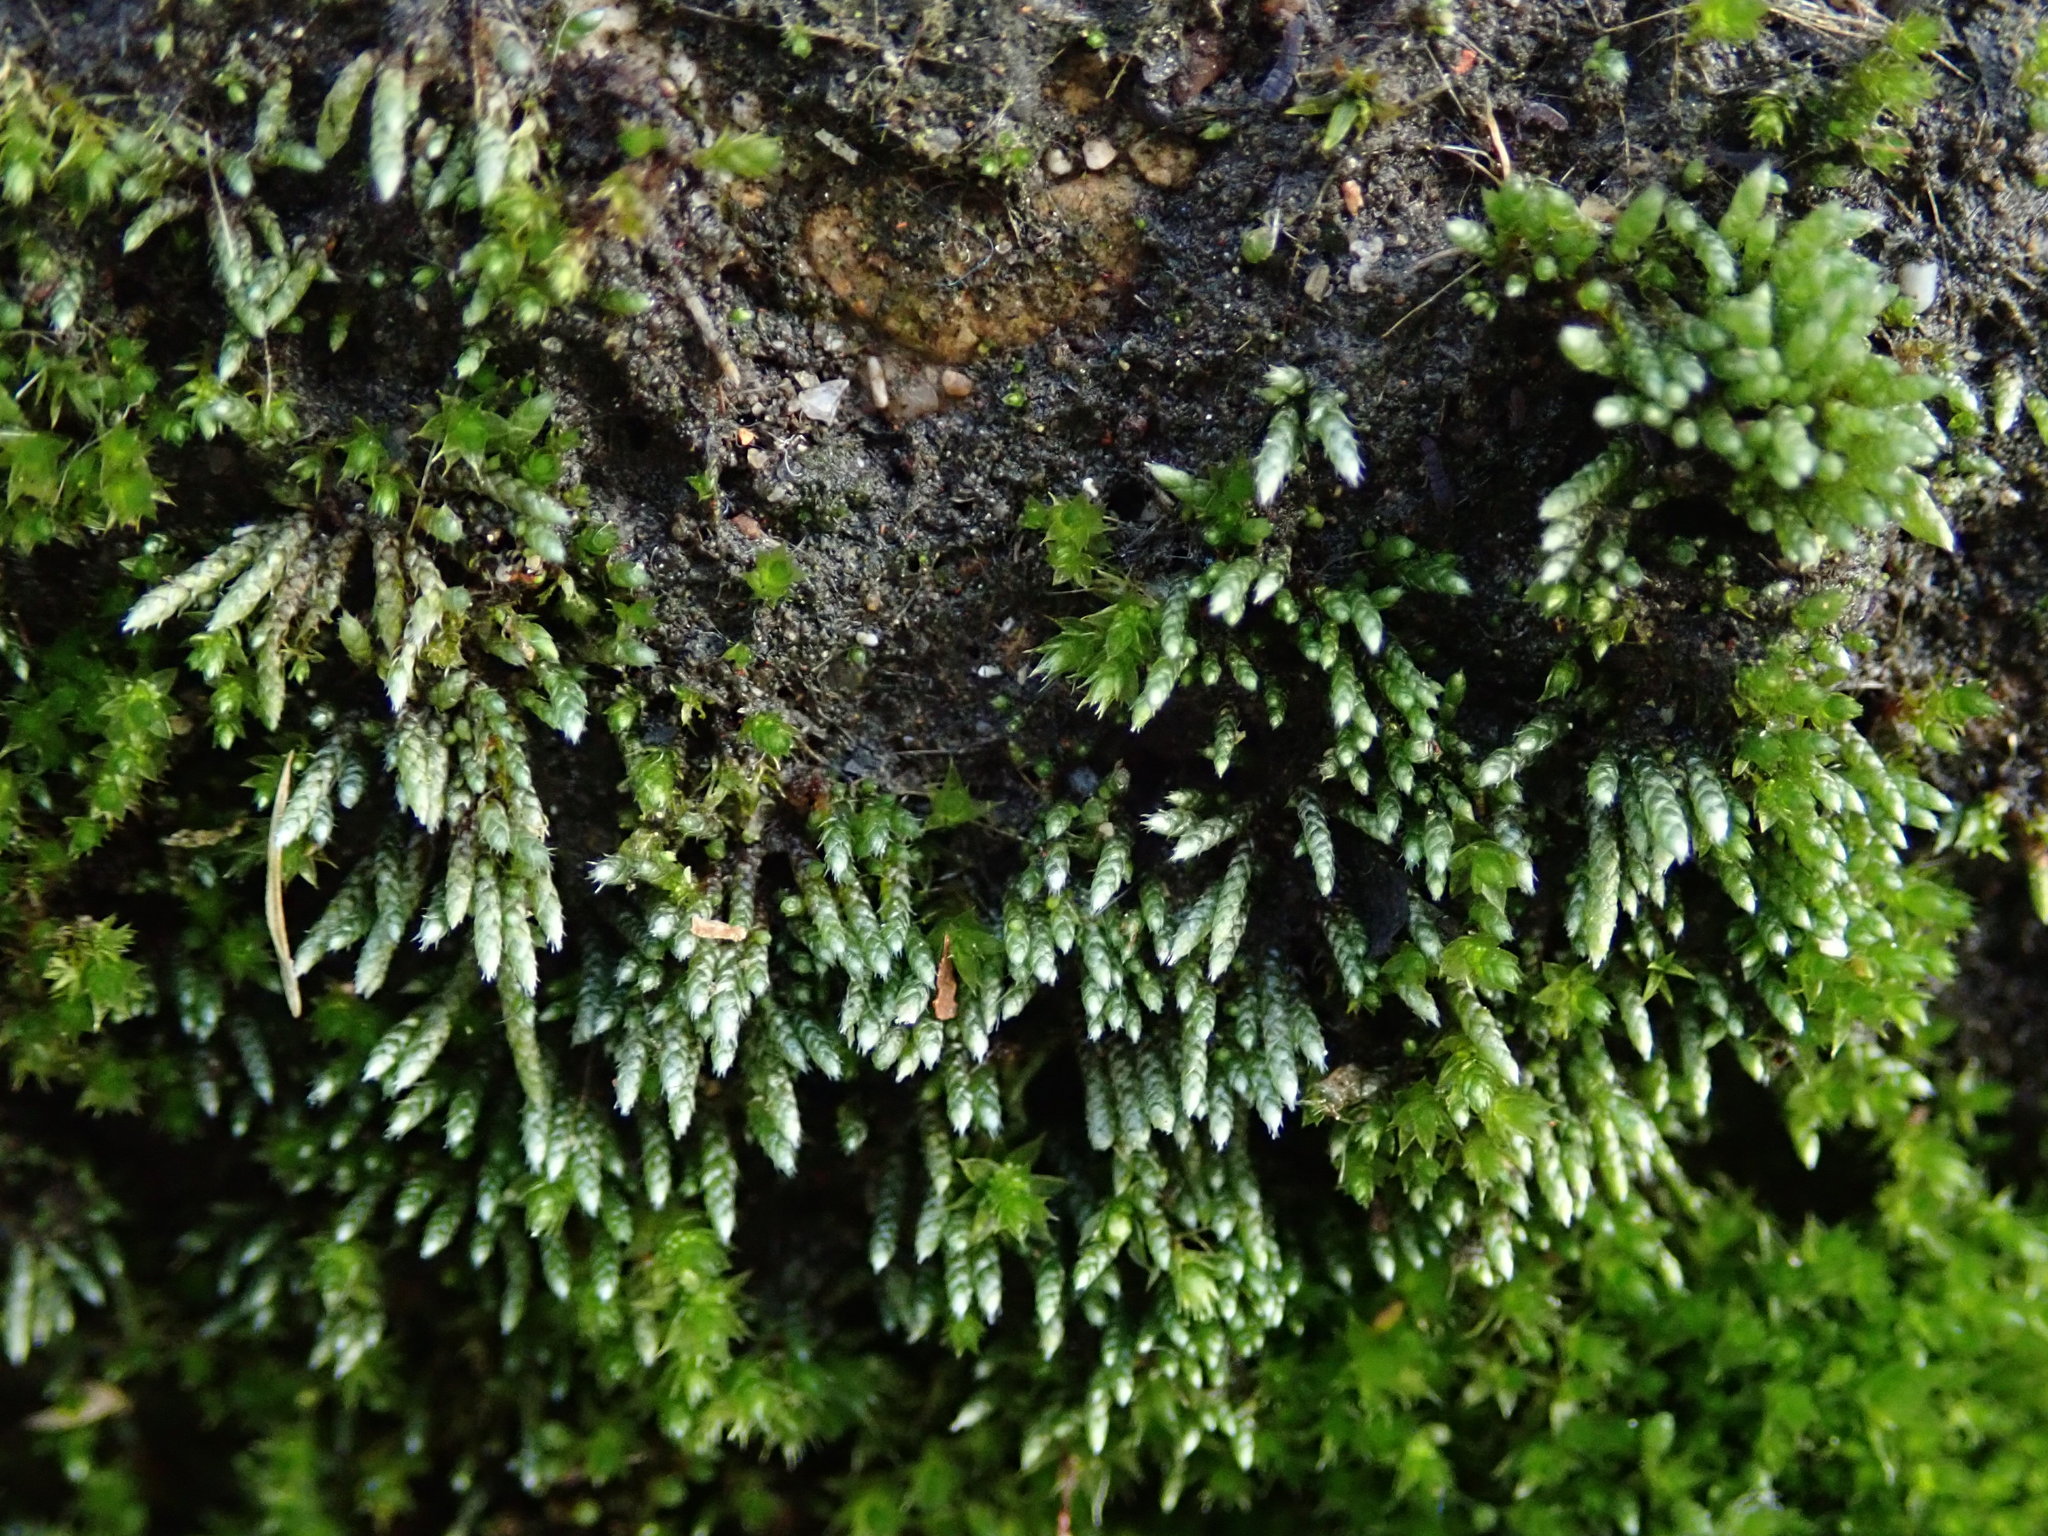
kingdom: Plantae
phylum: Bryophyta
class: Bryopsida
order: Bryales
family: Bryaceae
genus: Bryum
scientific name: Bryum argenteum
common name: Silver-moss
